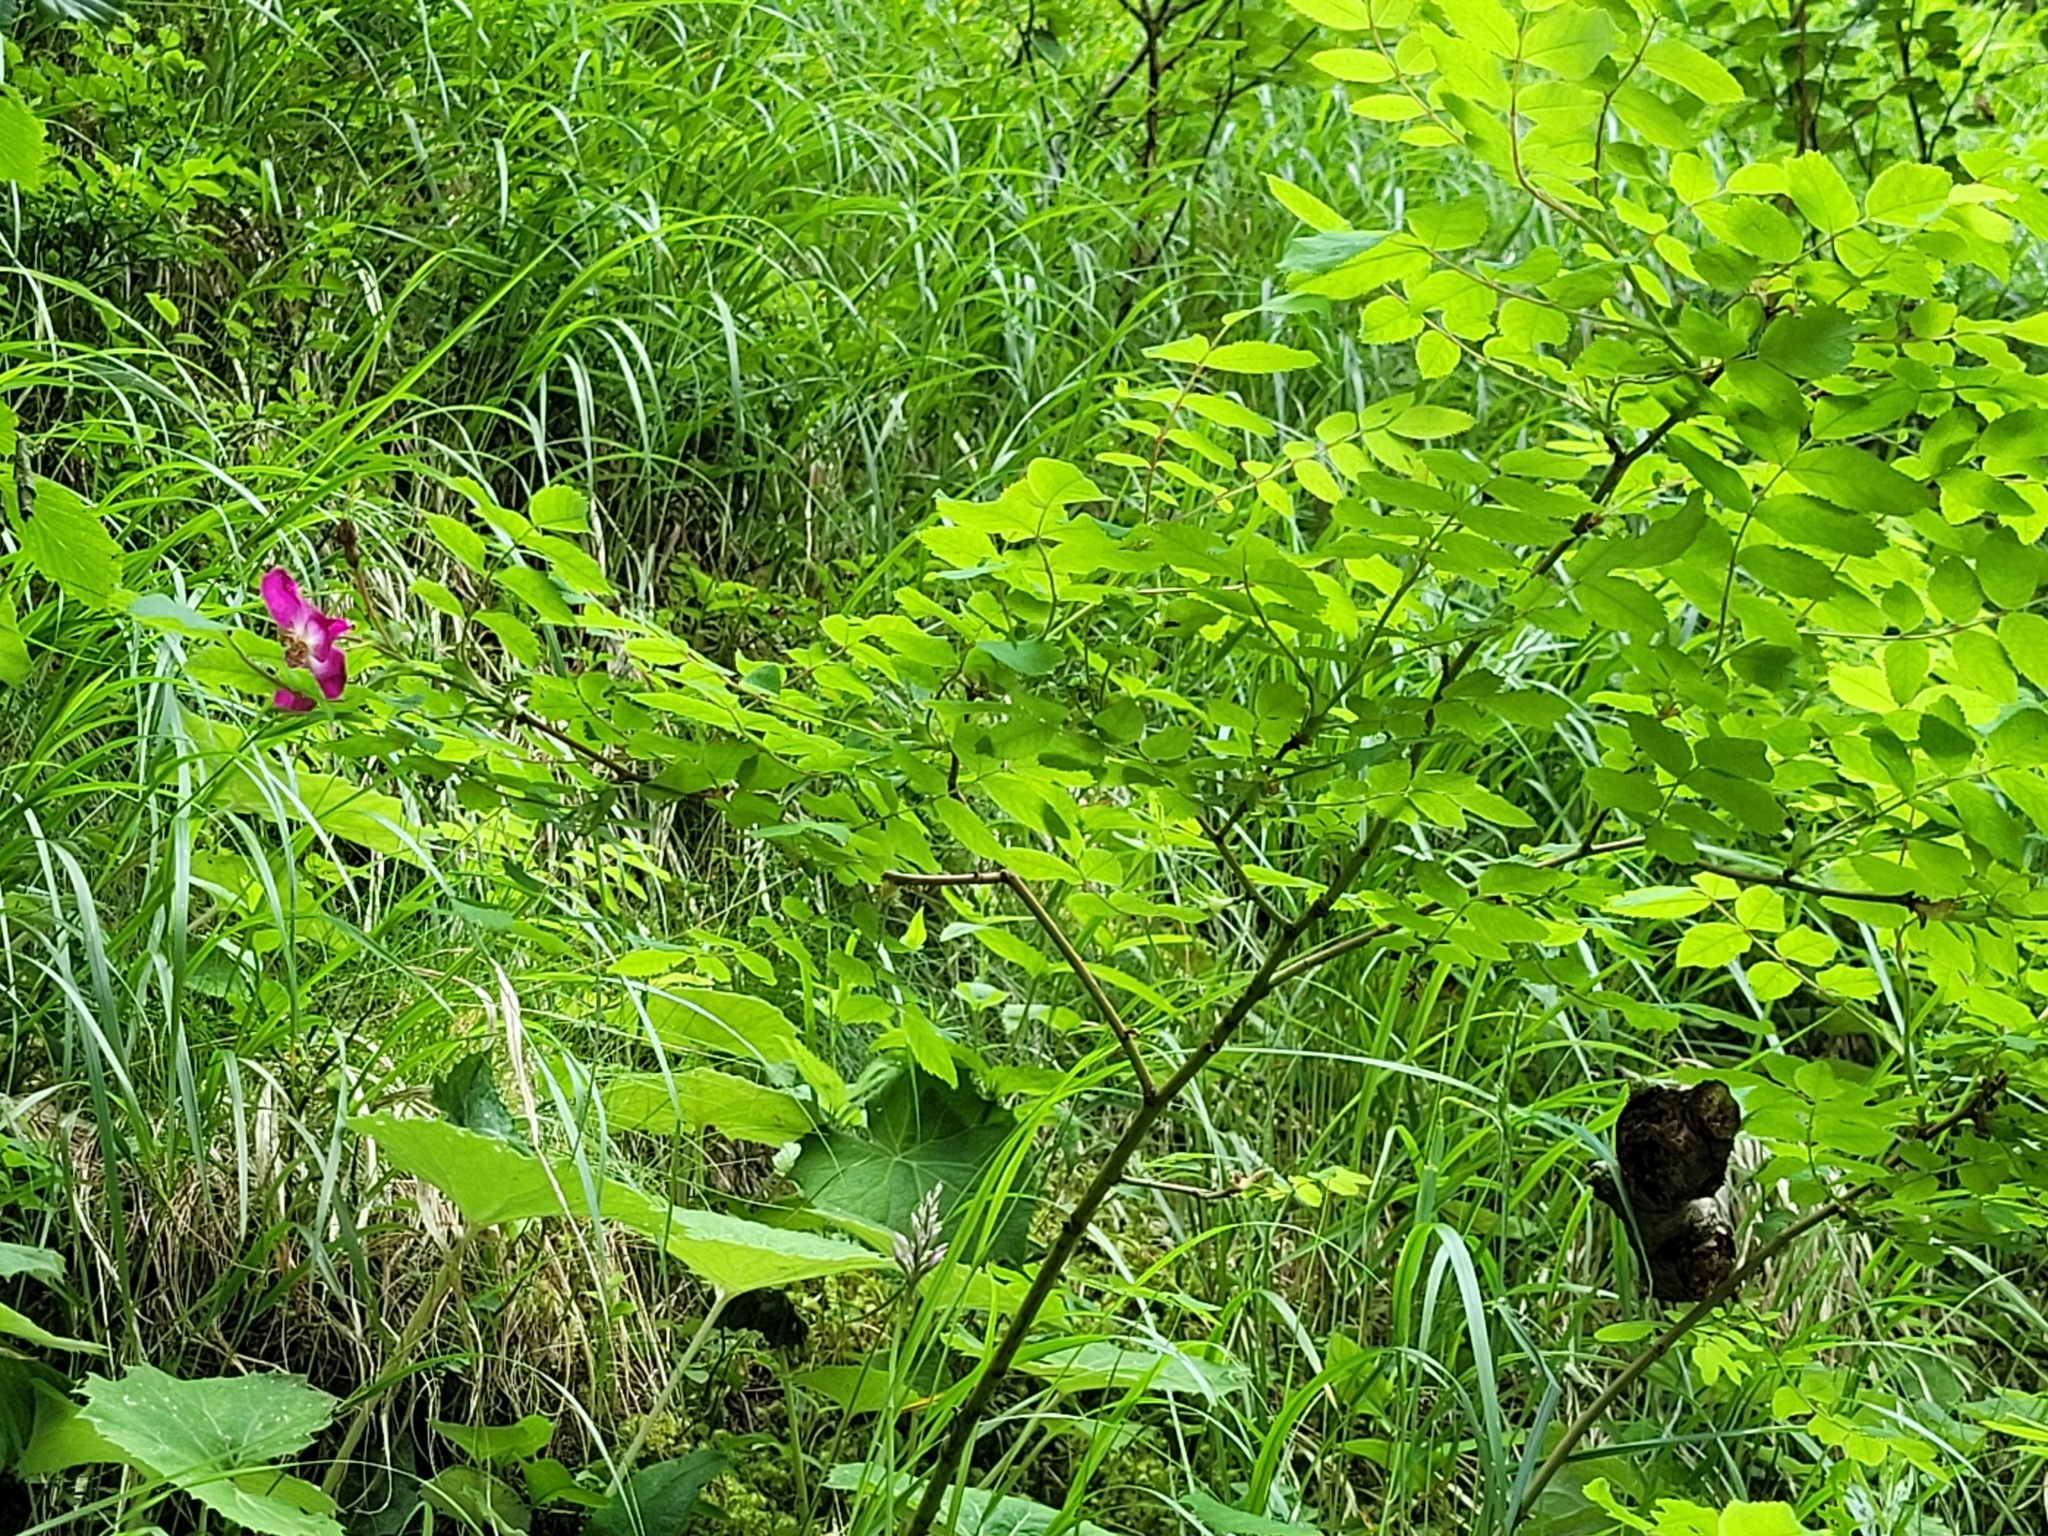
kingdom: Plantae
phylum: Tracheophyta
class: Magnoliopsida
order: Rosales
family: Rosaceae
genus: Rosa
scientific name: Rosa pendulina
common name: Alpine rose
